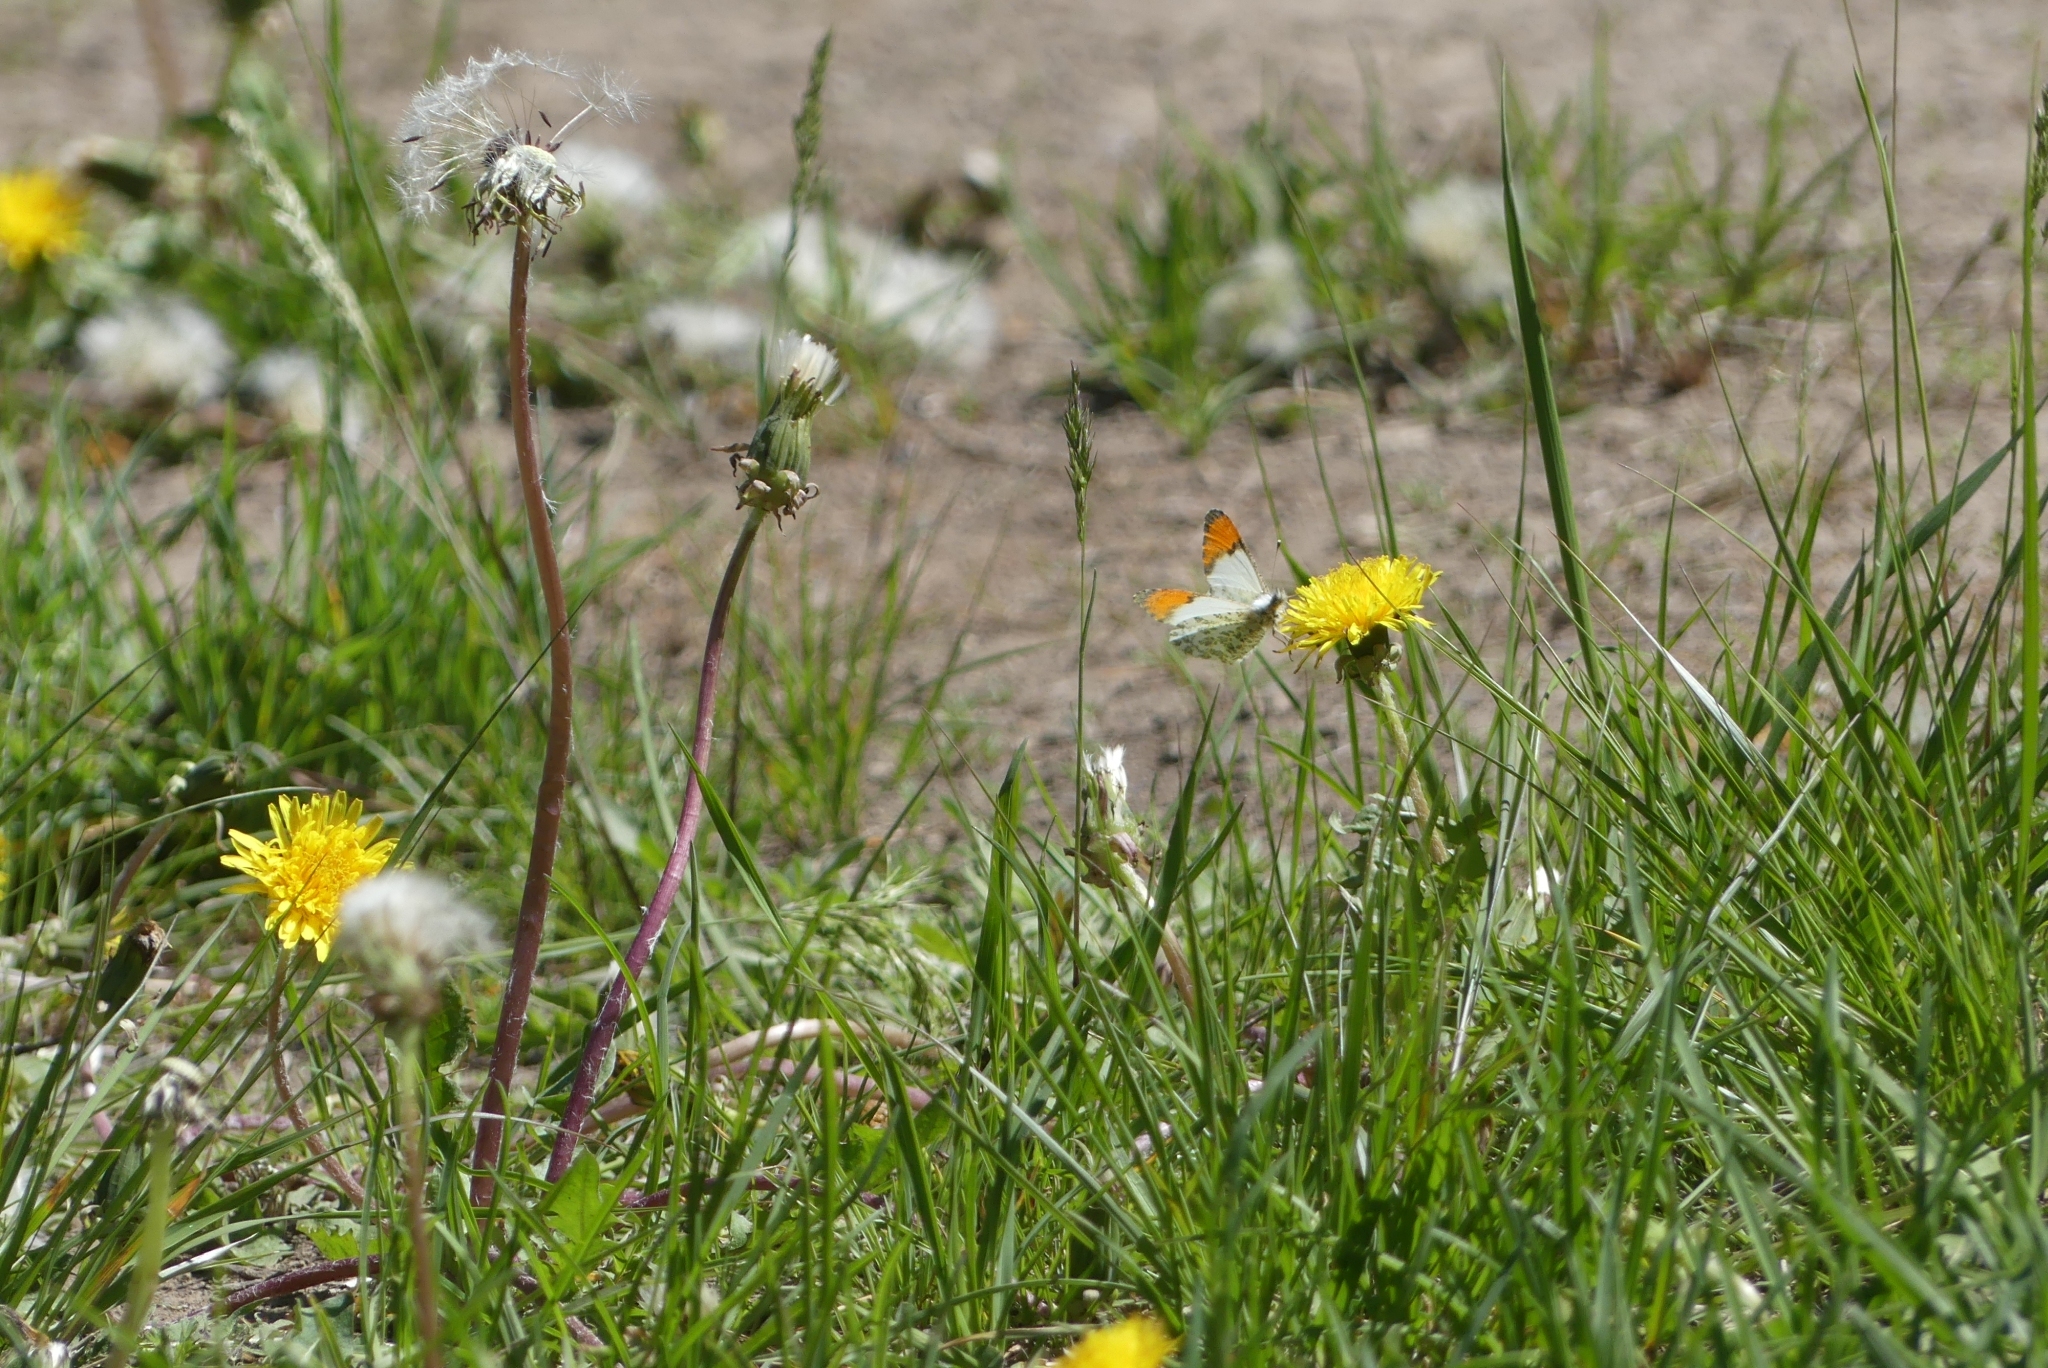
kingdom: Animalia
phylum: Arthropoda
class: Insecta
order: Lepidoptera
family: Pieridae
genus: Anthocharis
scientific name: Anthocharis julia
